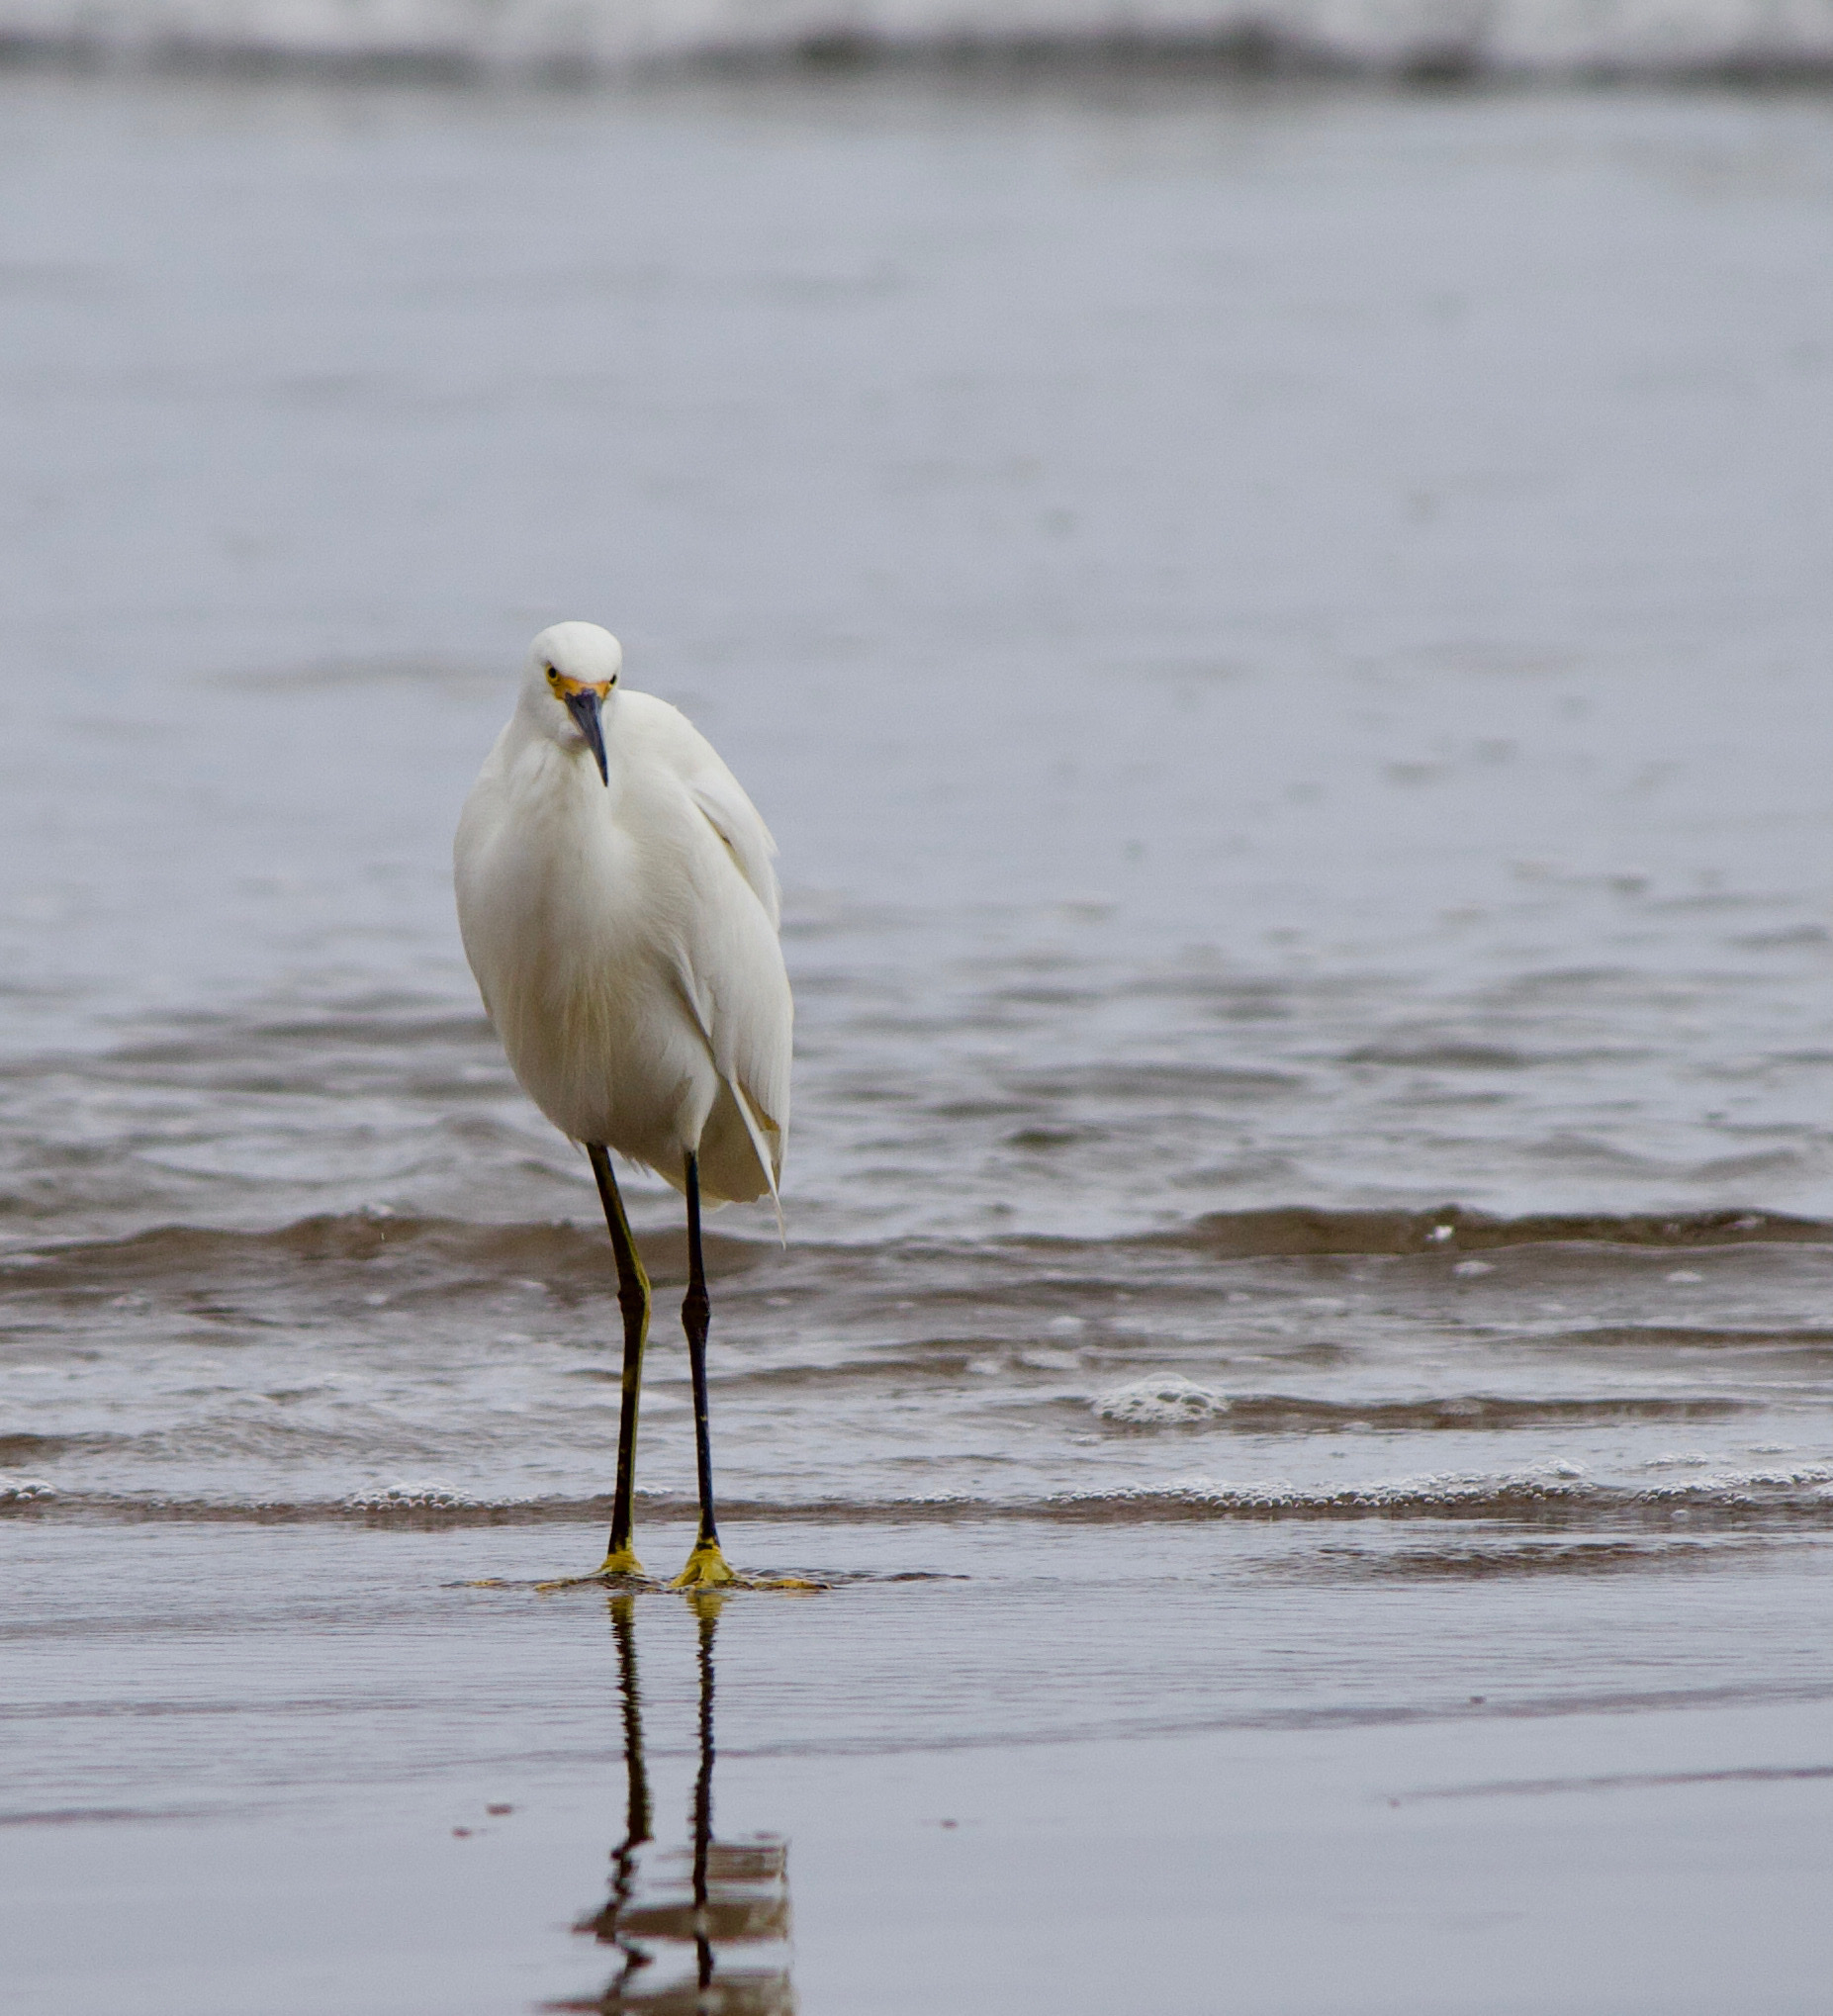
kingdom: Animalia
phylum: Chordata
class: Aves
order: Pelecaniformes
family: Ardeidae
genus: Egretta
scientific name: Egretta thula
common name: Snowy egret
